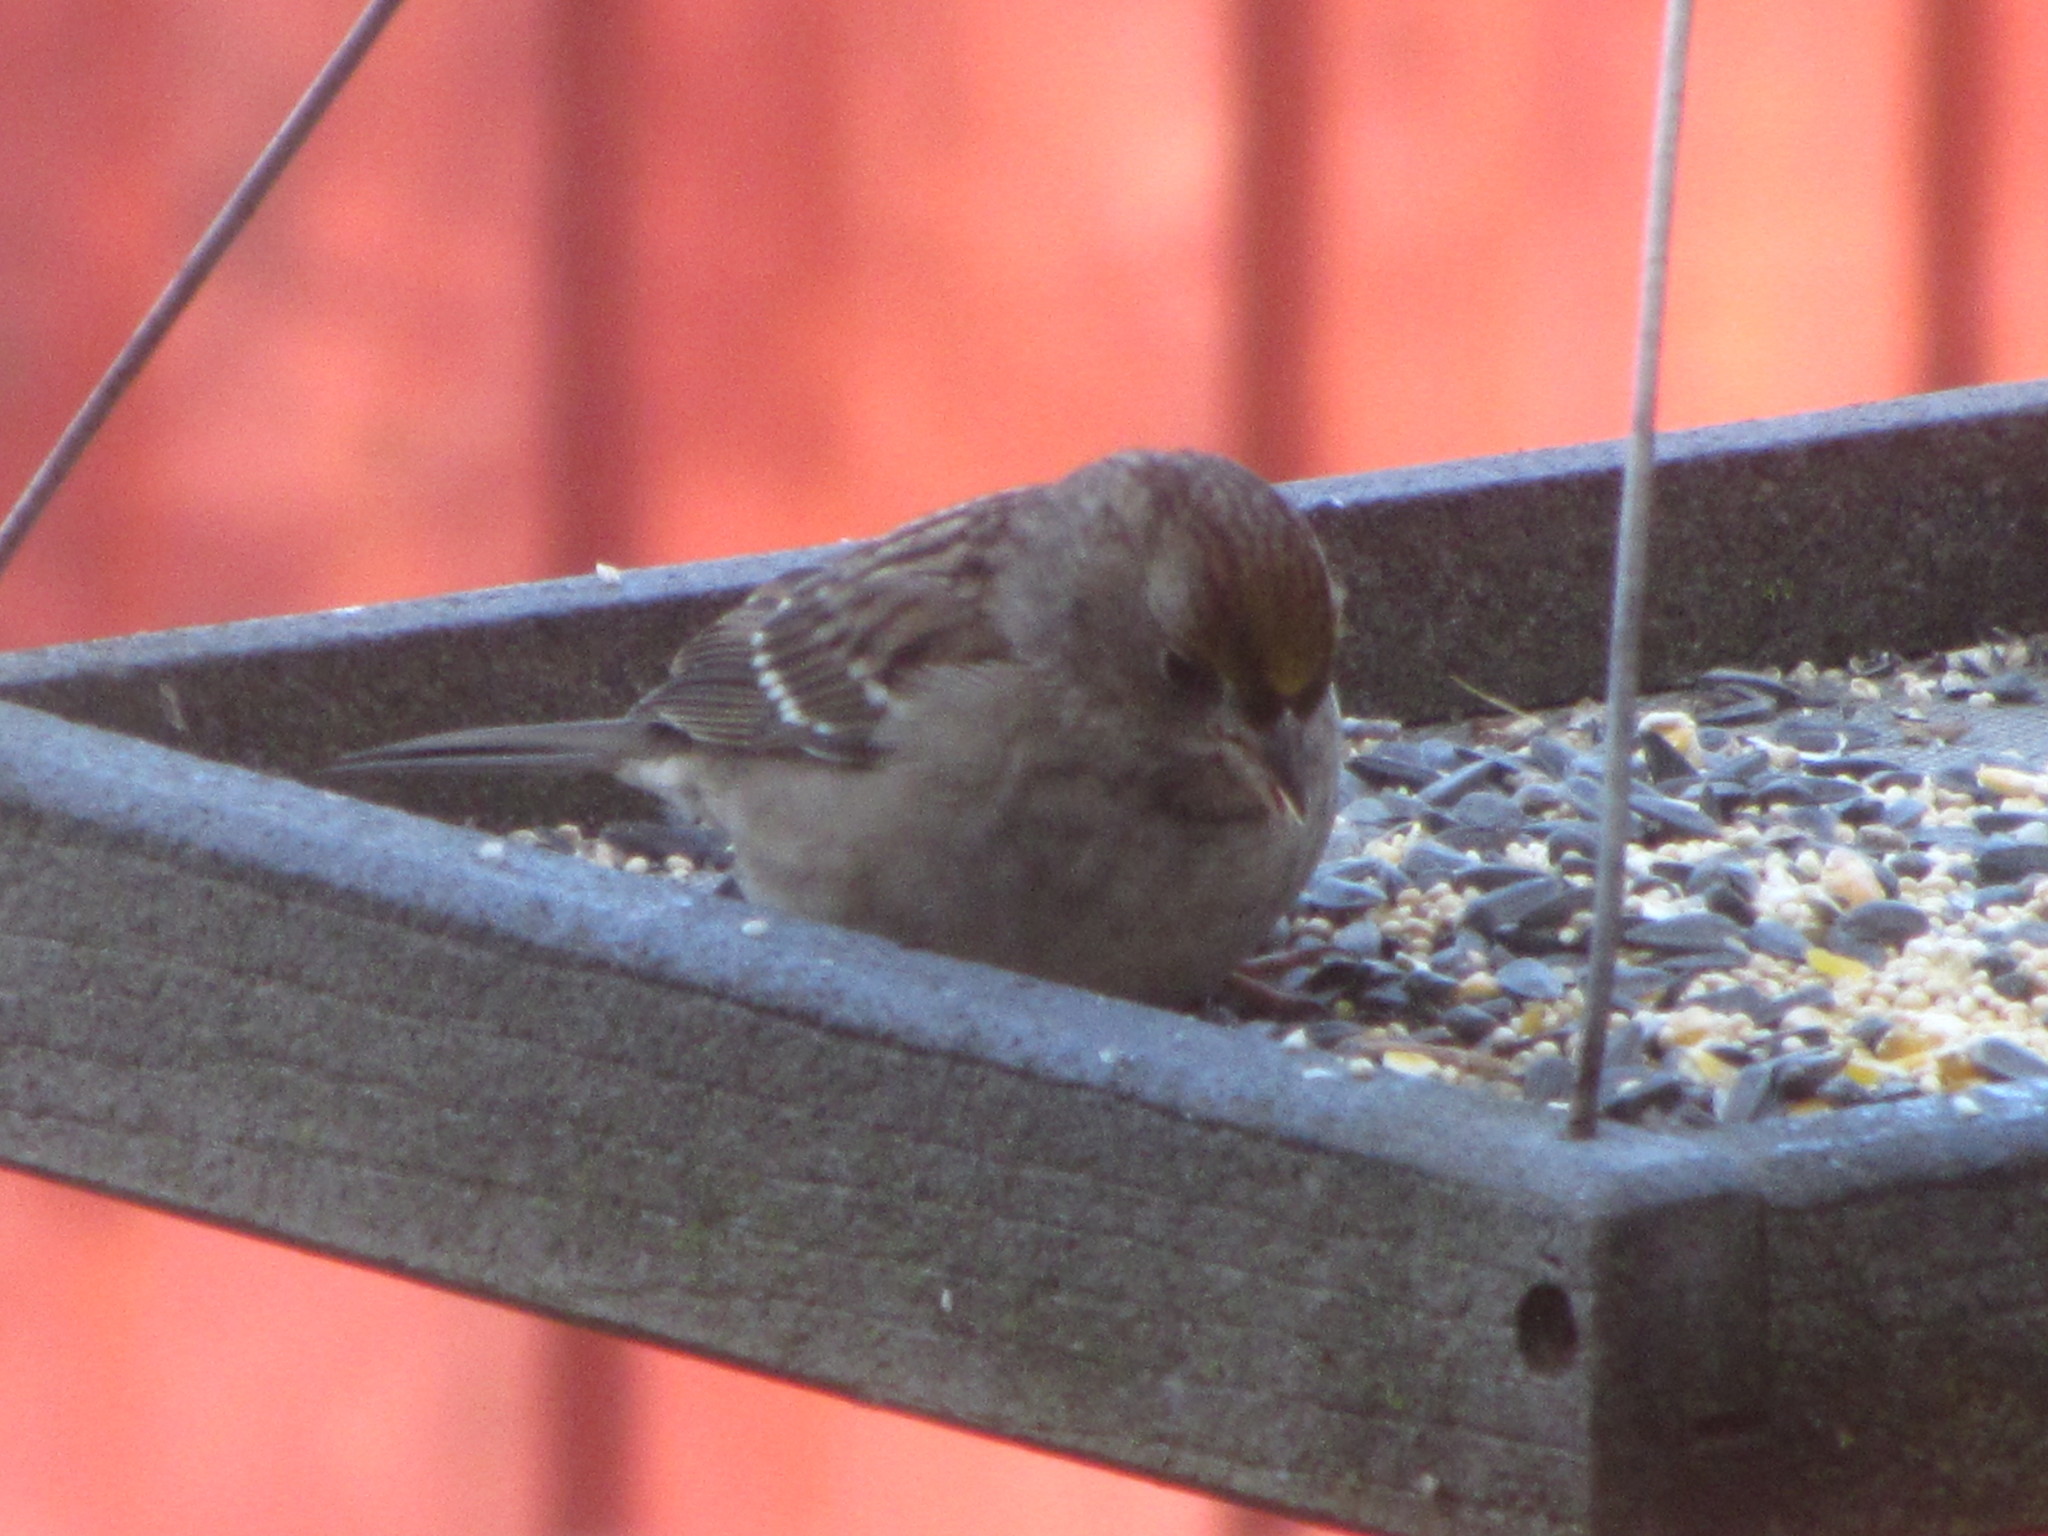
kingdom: Animalia
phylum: Chordata
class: Aves
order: Passeriformes
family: Passerellidae
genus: Zonotrichia
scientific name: Zonotrichia atricapilla
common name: Golden-crowned sparrow
